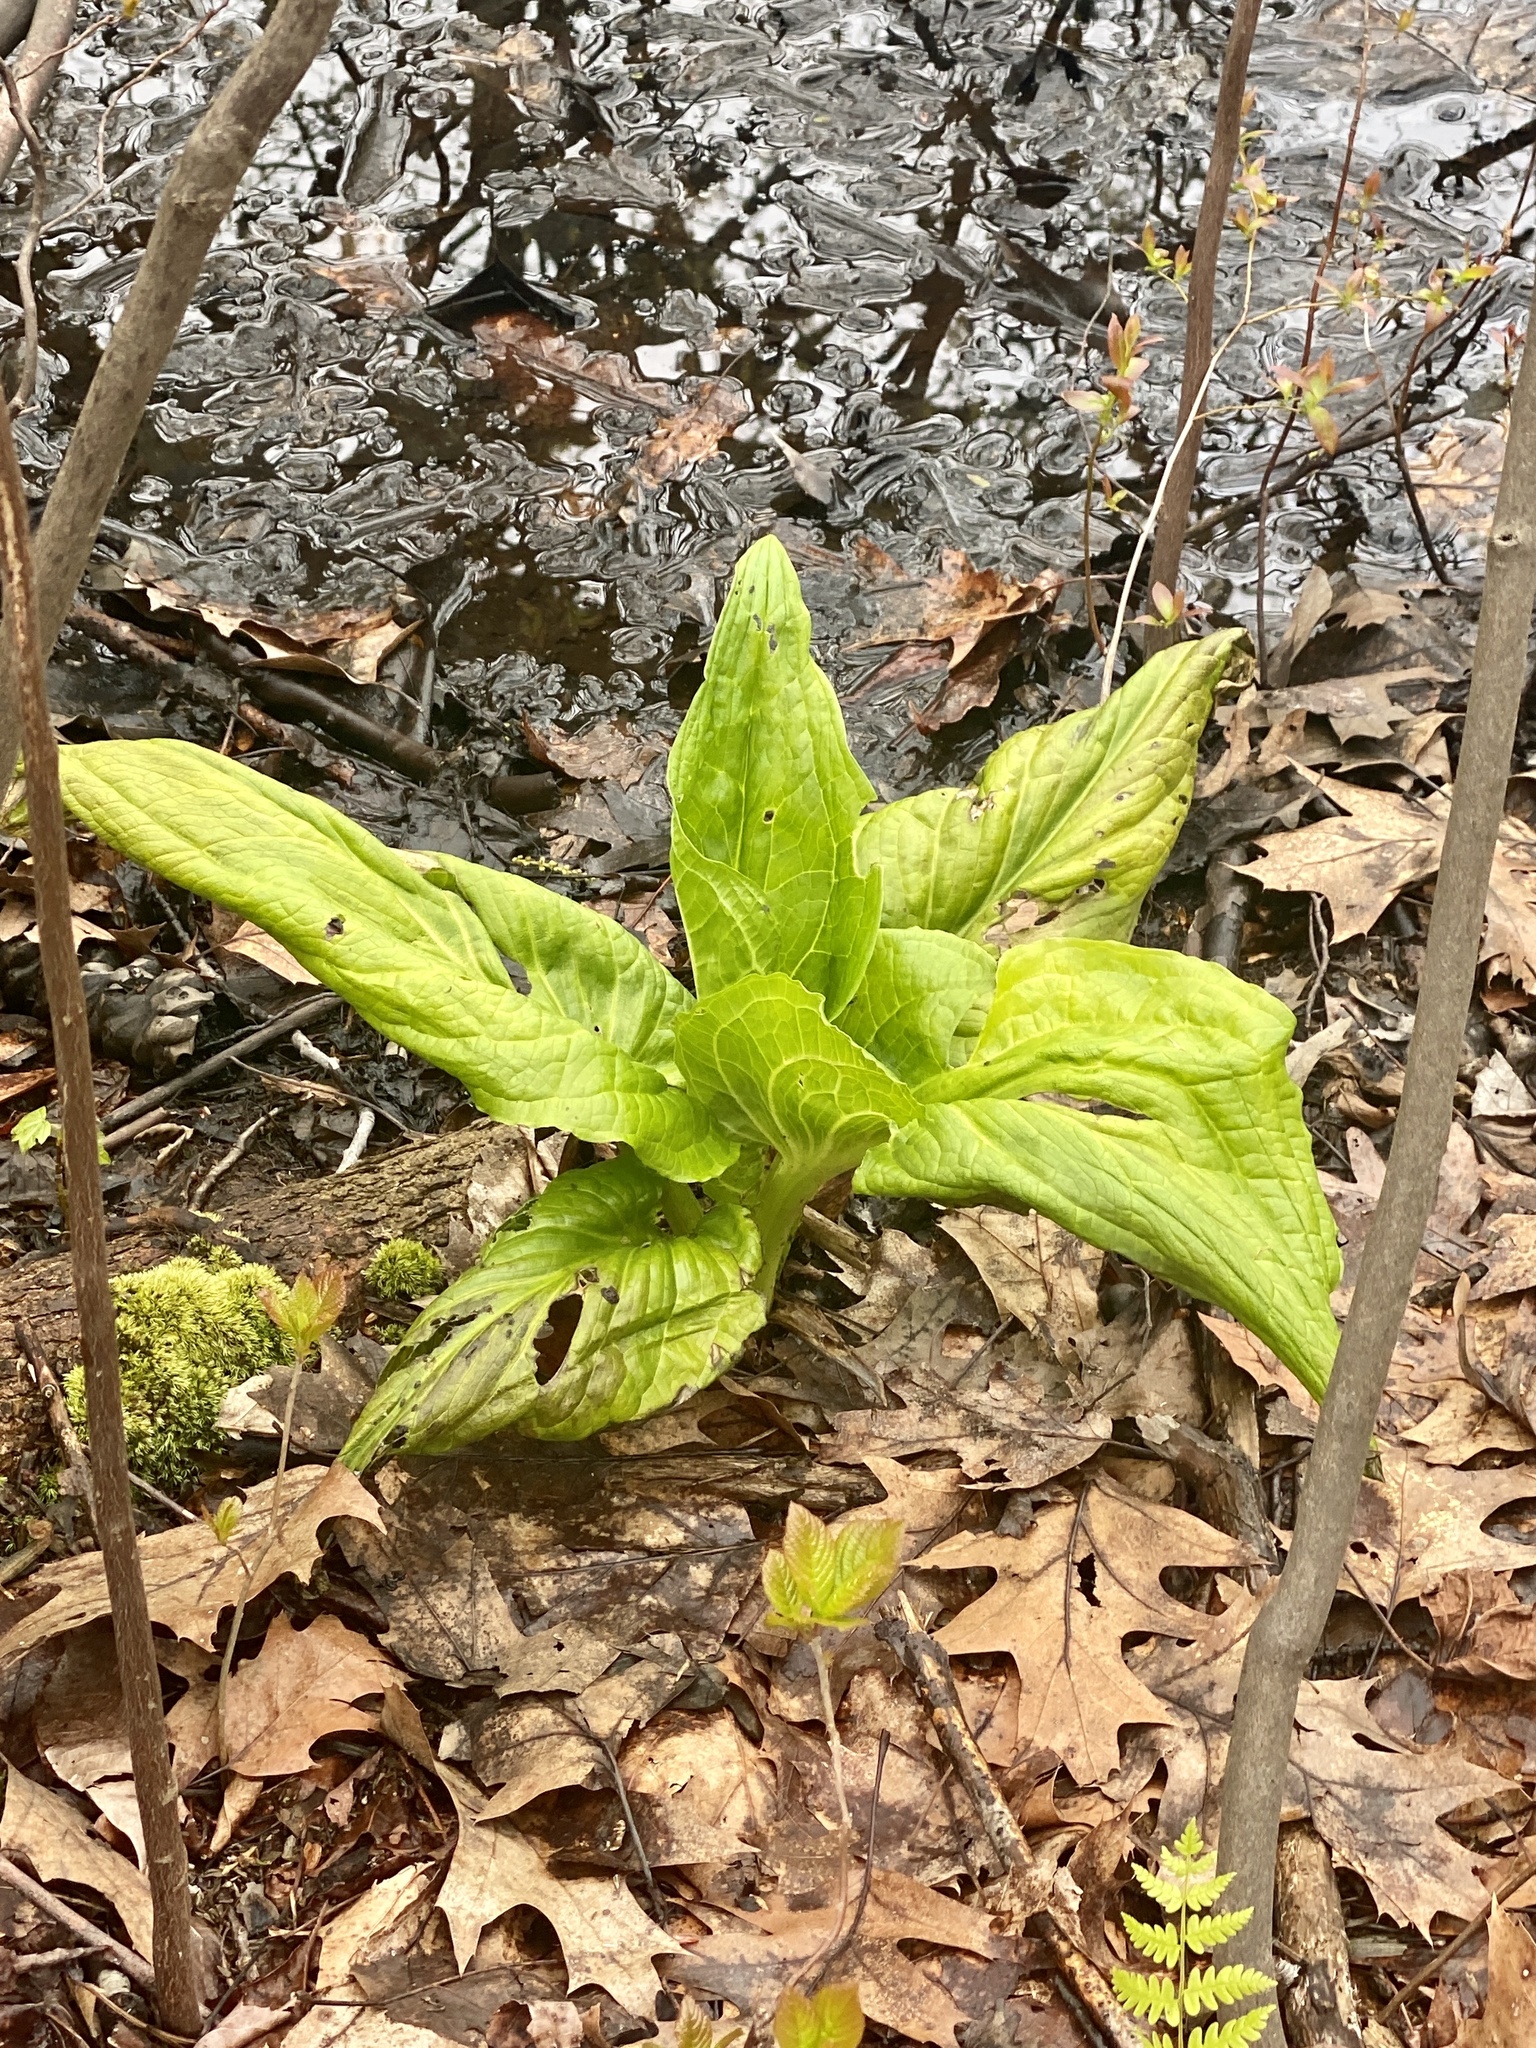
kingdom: Plantae
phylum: Tracheophyta
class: Liliopsida
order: Alismatales
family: Araceae
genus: Symplocarpus
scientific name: Symplocarpus foetidus
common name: Eastern skunk cabbage
